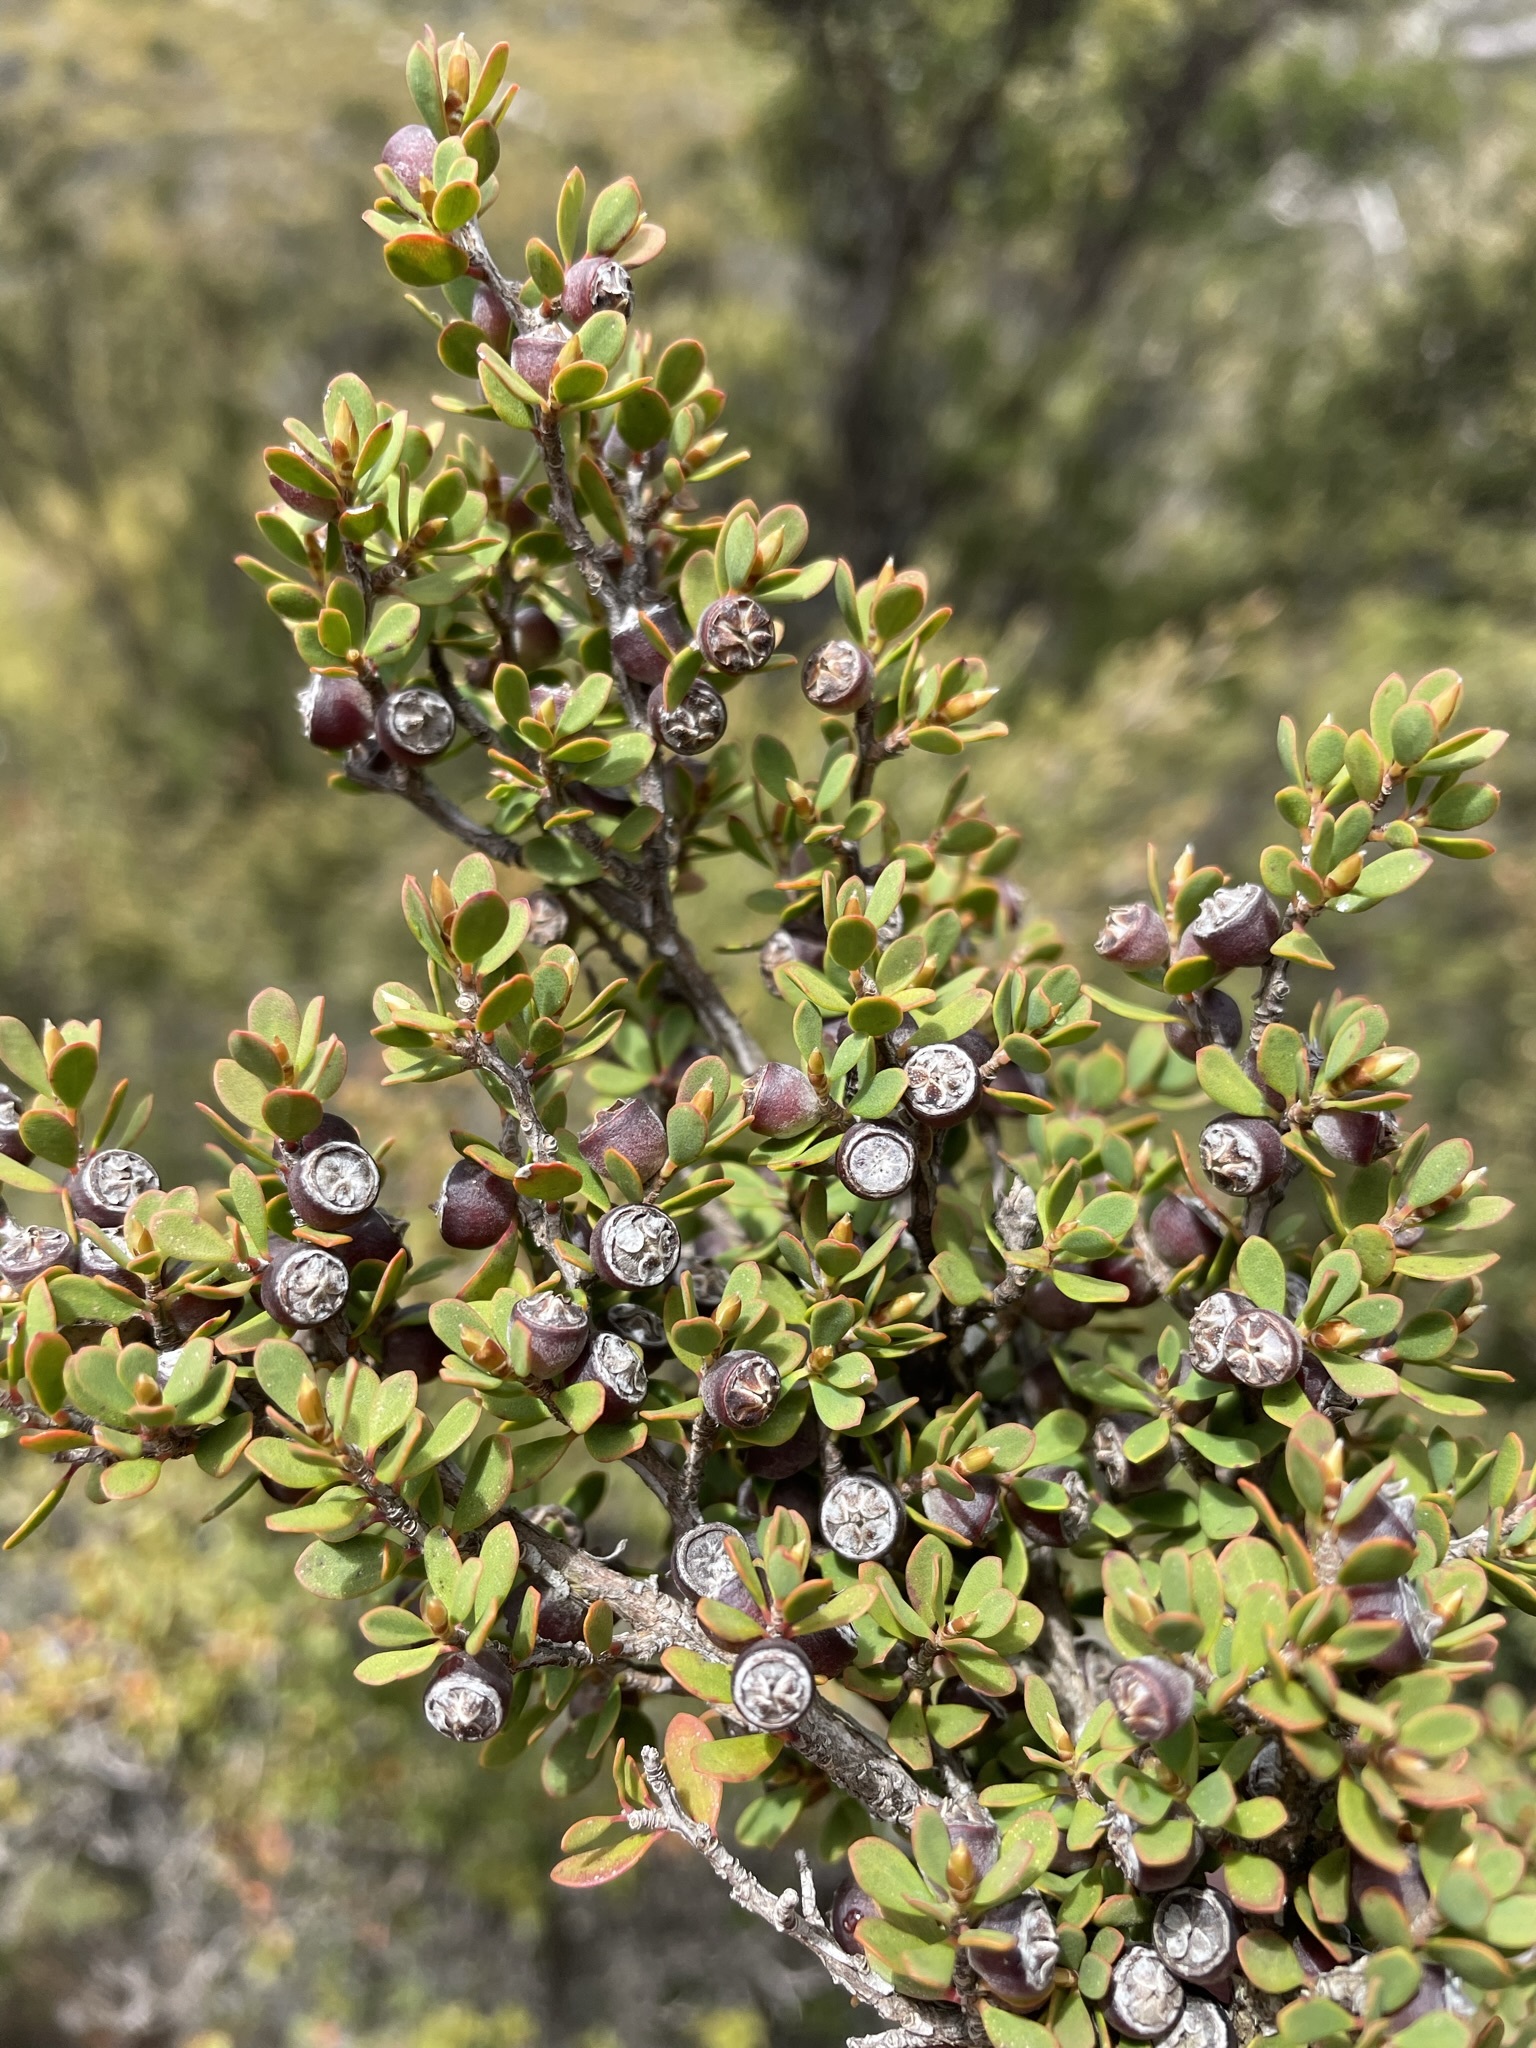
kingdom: Plantae
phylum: Tracheophyta
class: Magnoliopsida
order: Myrtales
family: Myrtaceae
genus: Leptospermum
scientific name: Leptospermum glaucescens
